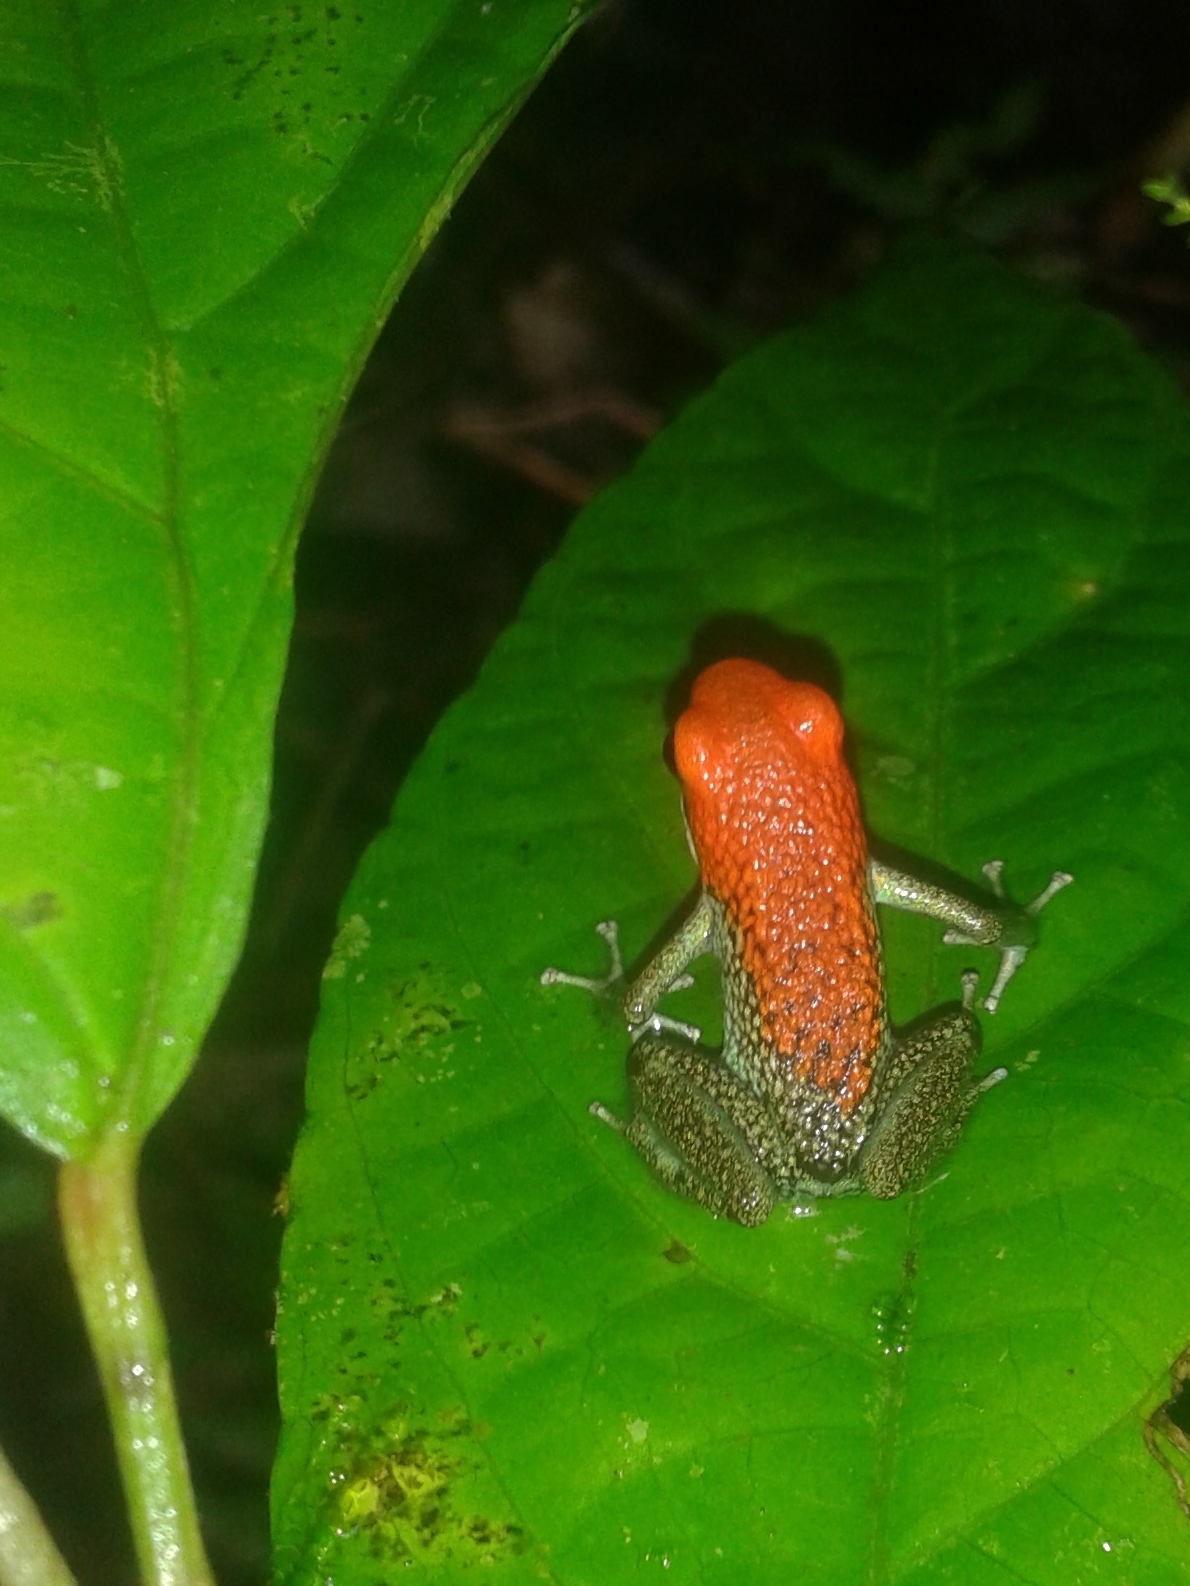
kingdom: Animalia
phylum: Chordata
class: Amphibia
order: Anura
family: Dendrobatidae
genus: Oophaga
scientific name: Oophaga granulifera
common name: Granular poison frog
